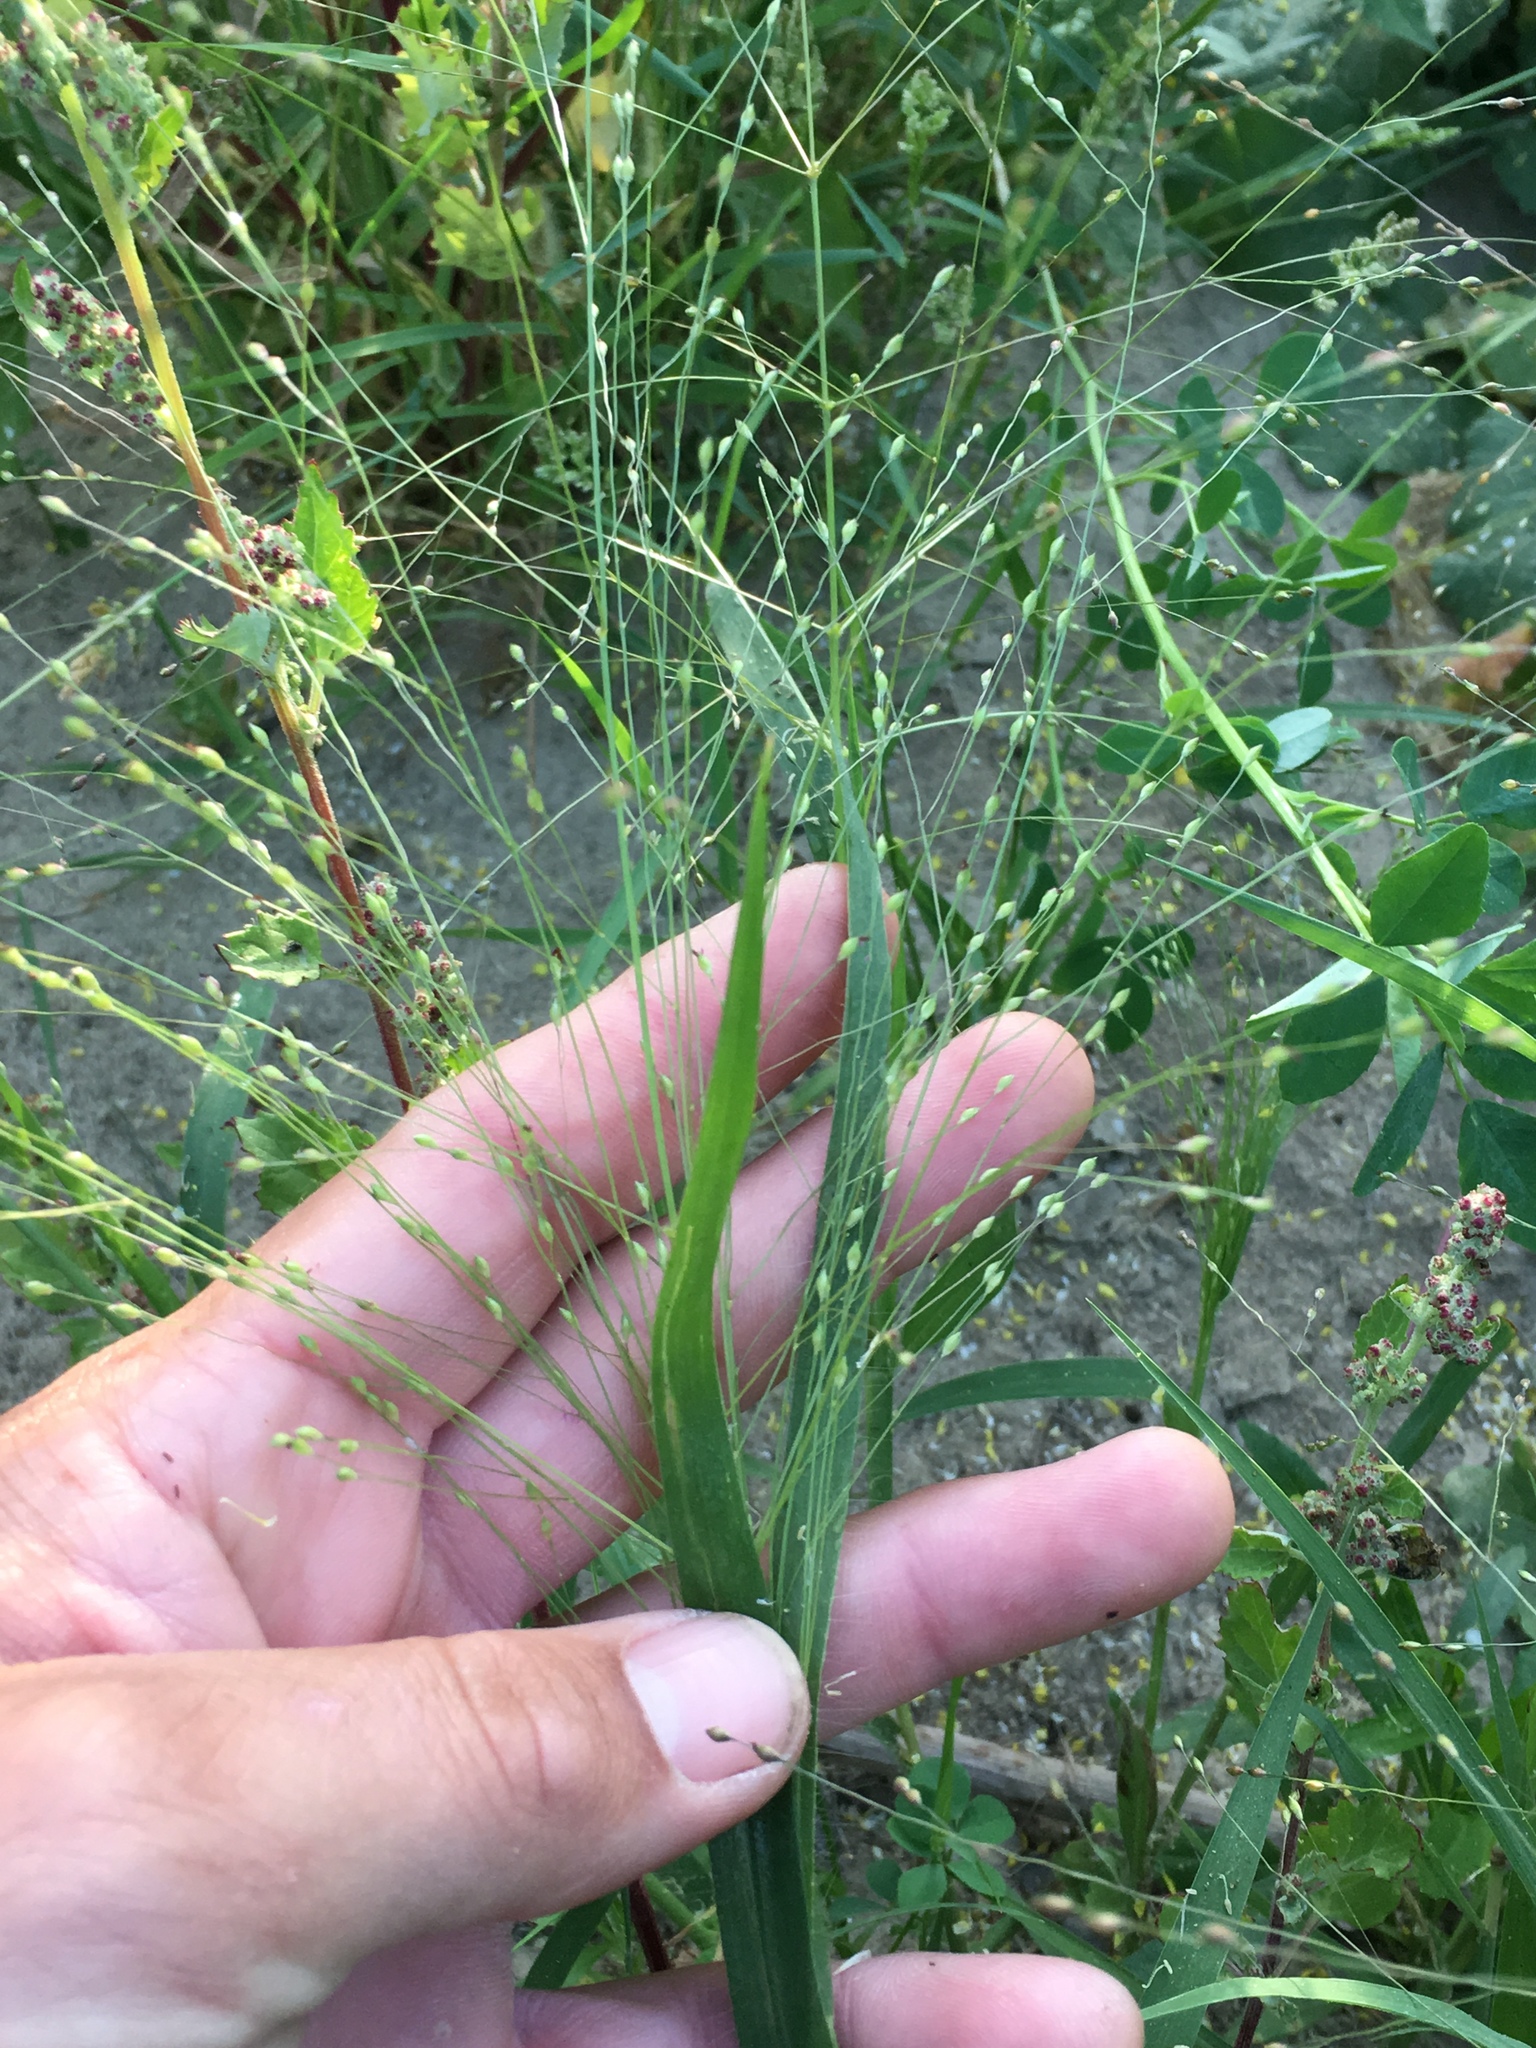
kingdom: Plantae
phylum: Tracheophyta
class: Liliopsida
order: Poales
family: Poaceae
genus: Panicum
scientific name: Panicum capillare
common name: Witch-grass
